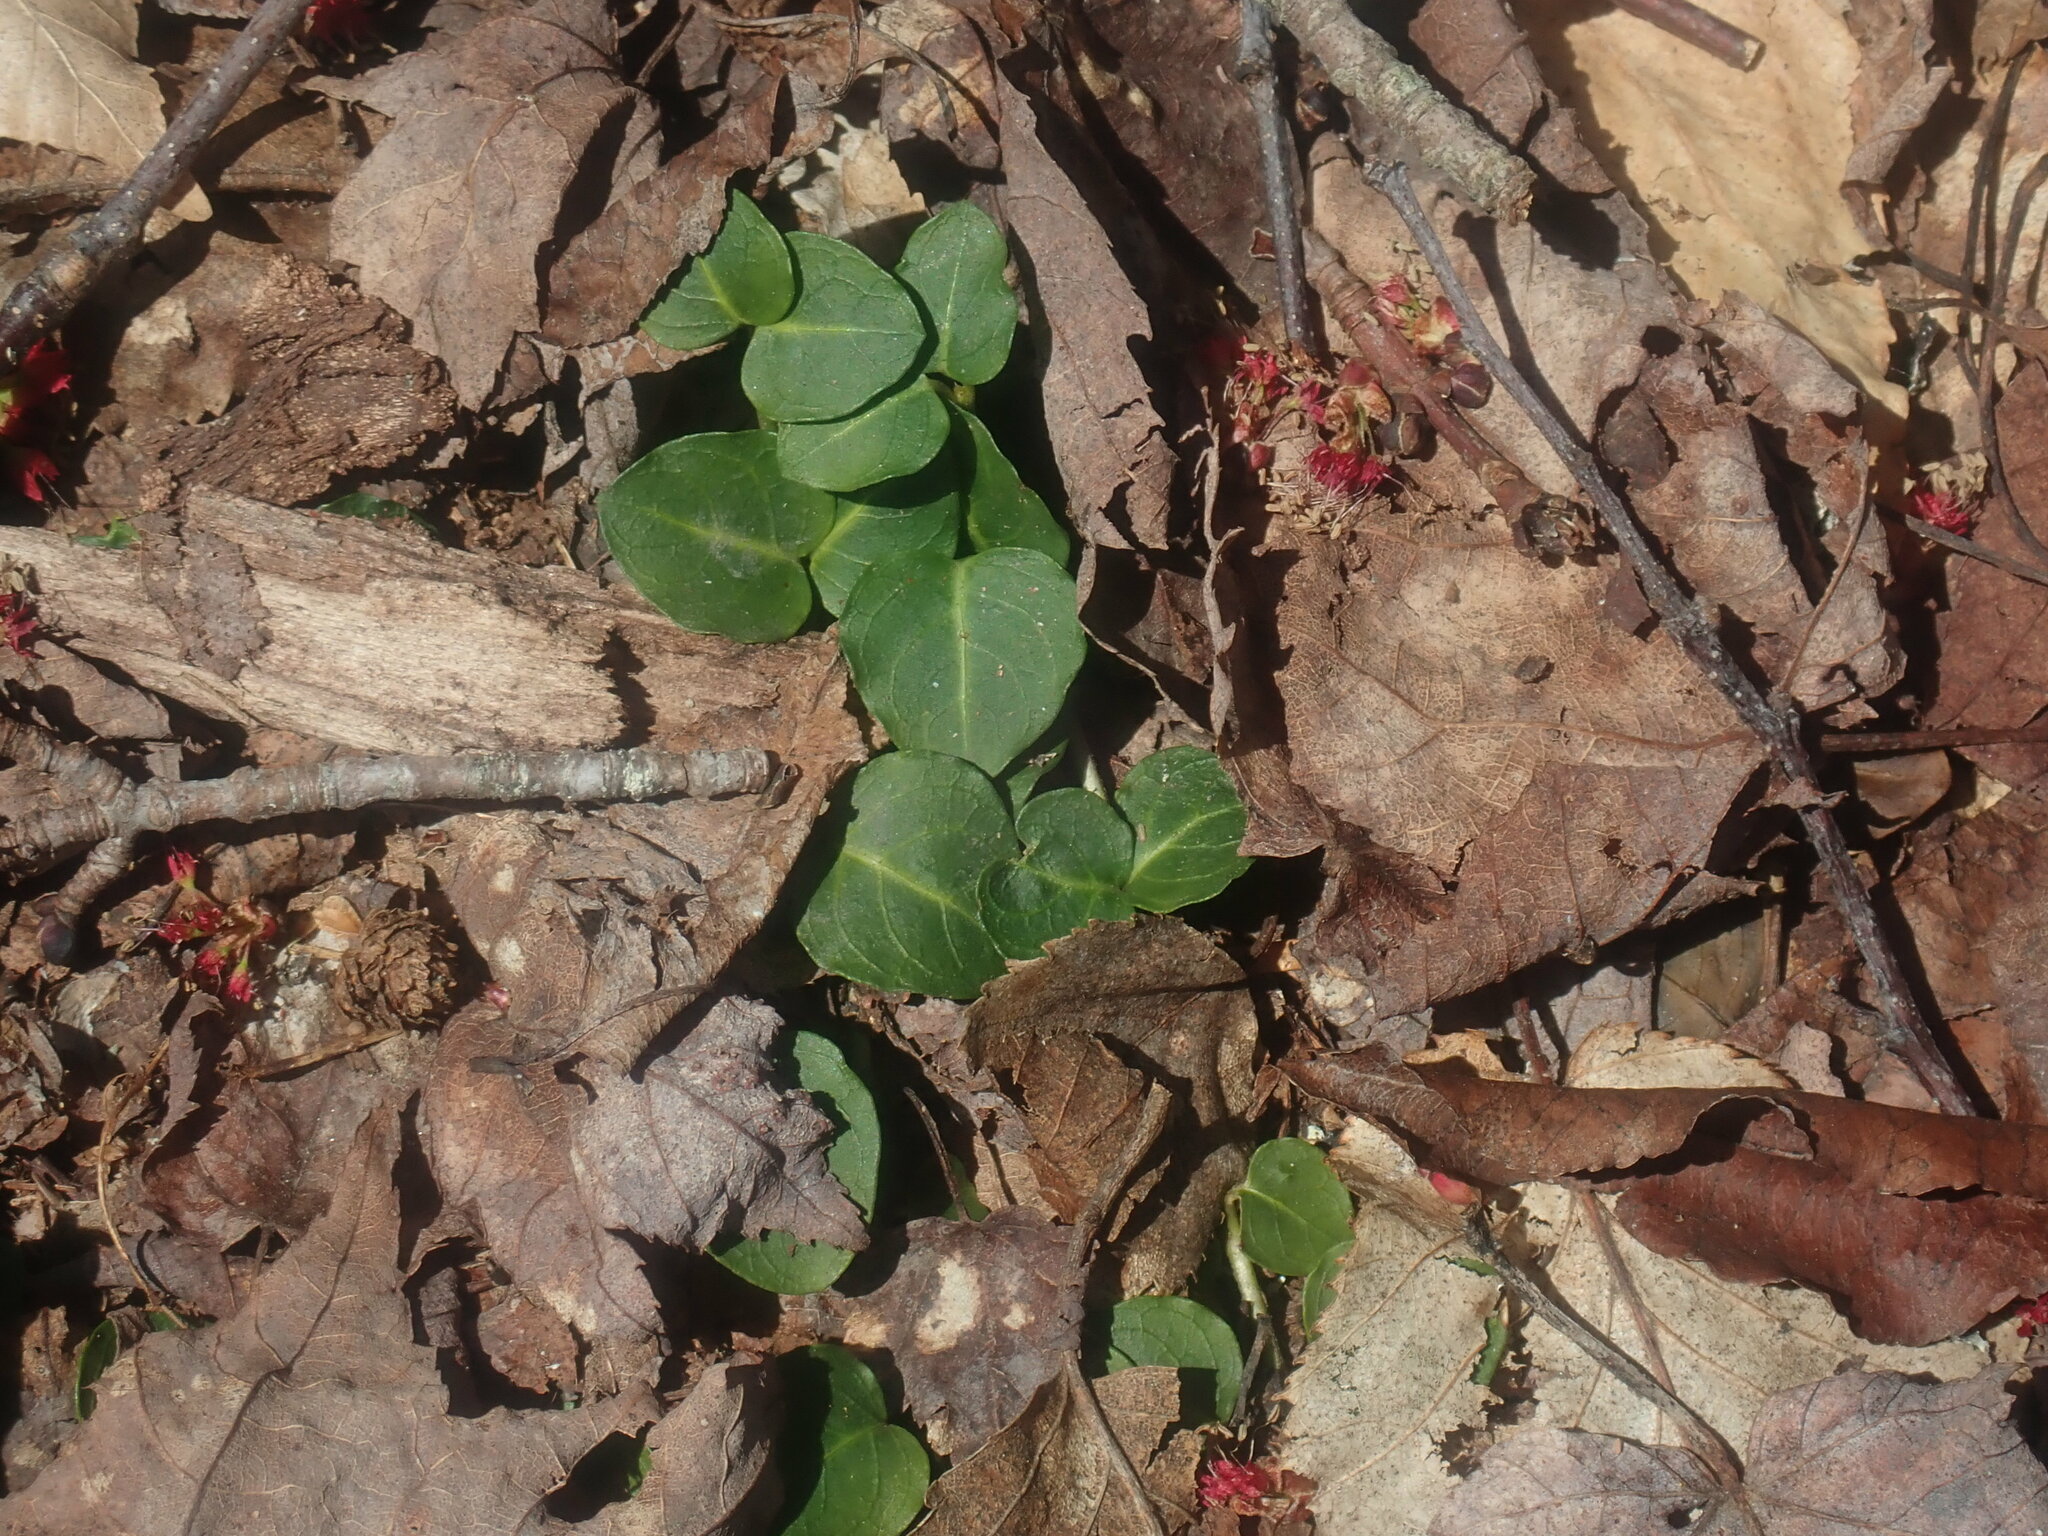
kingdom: Plantae
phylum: Tracheophyta
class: Magnoliopsida
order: Gentianales
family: Rubiaceae
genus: Mitchella
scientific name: Mitchella repens
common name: Partridge-berry
